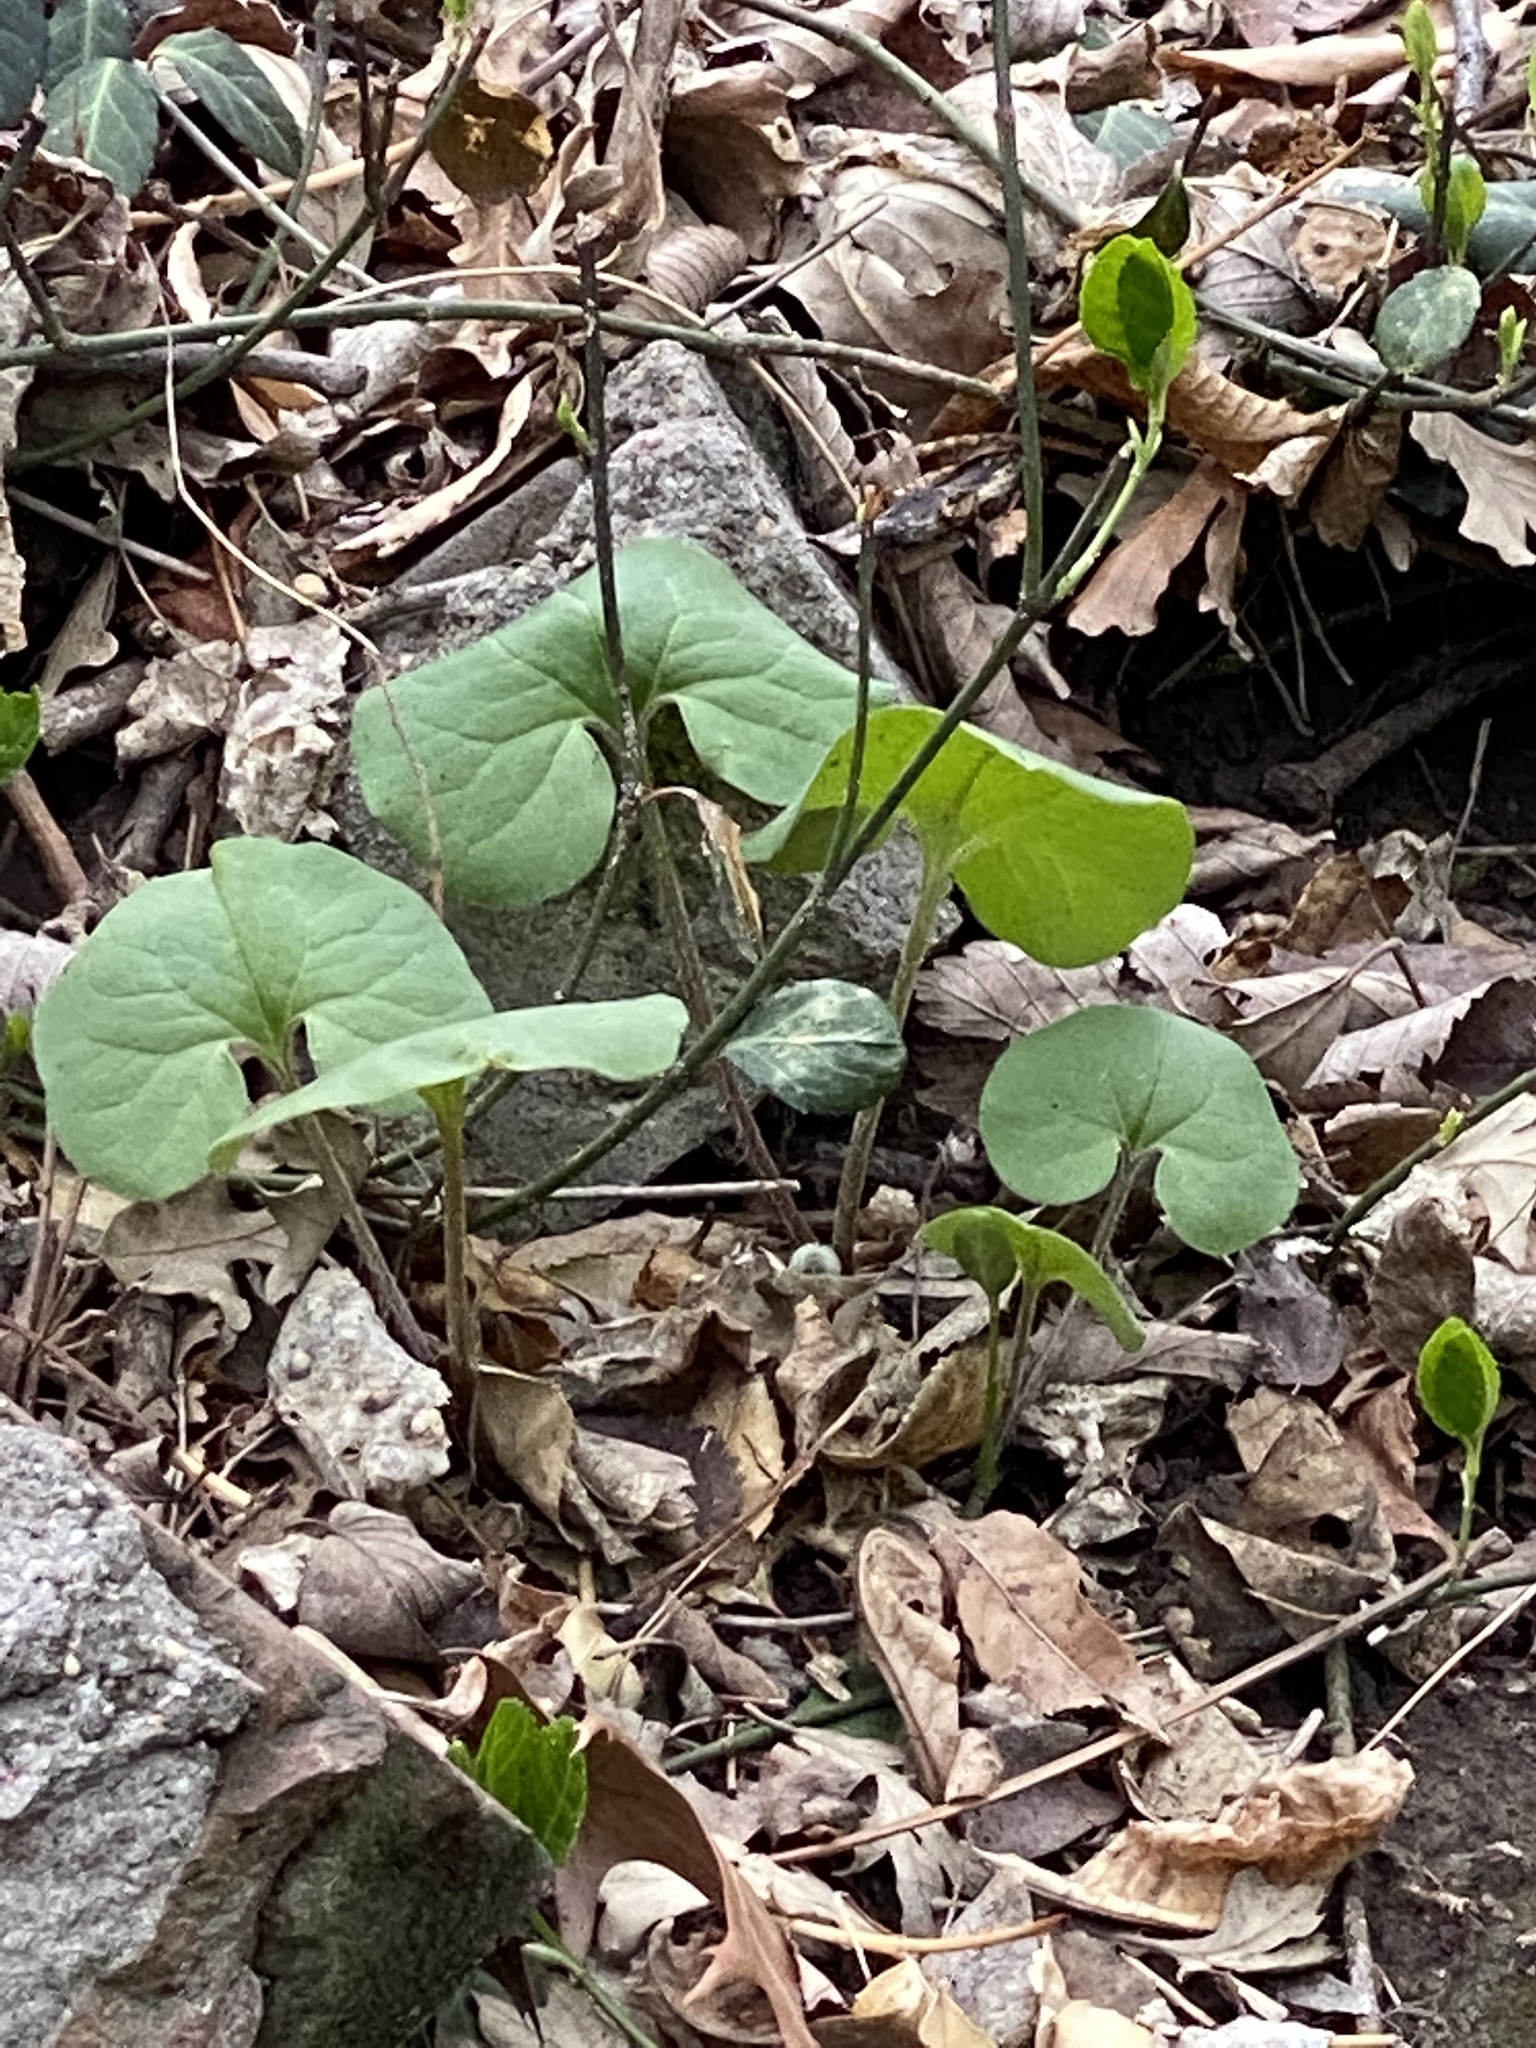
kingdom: Plantae
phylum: Tracheophyta
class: Magnoliopsida
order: Piperales
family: Aristolochiaceae
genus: Asarum
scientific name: Asarum canadense
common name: Wild ginger
